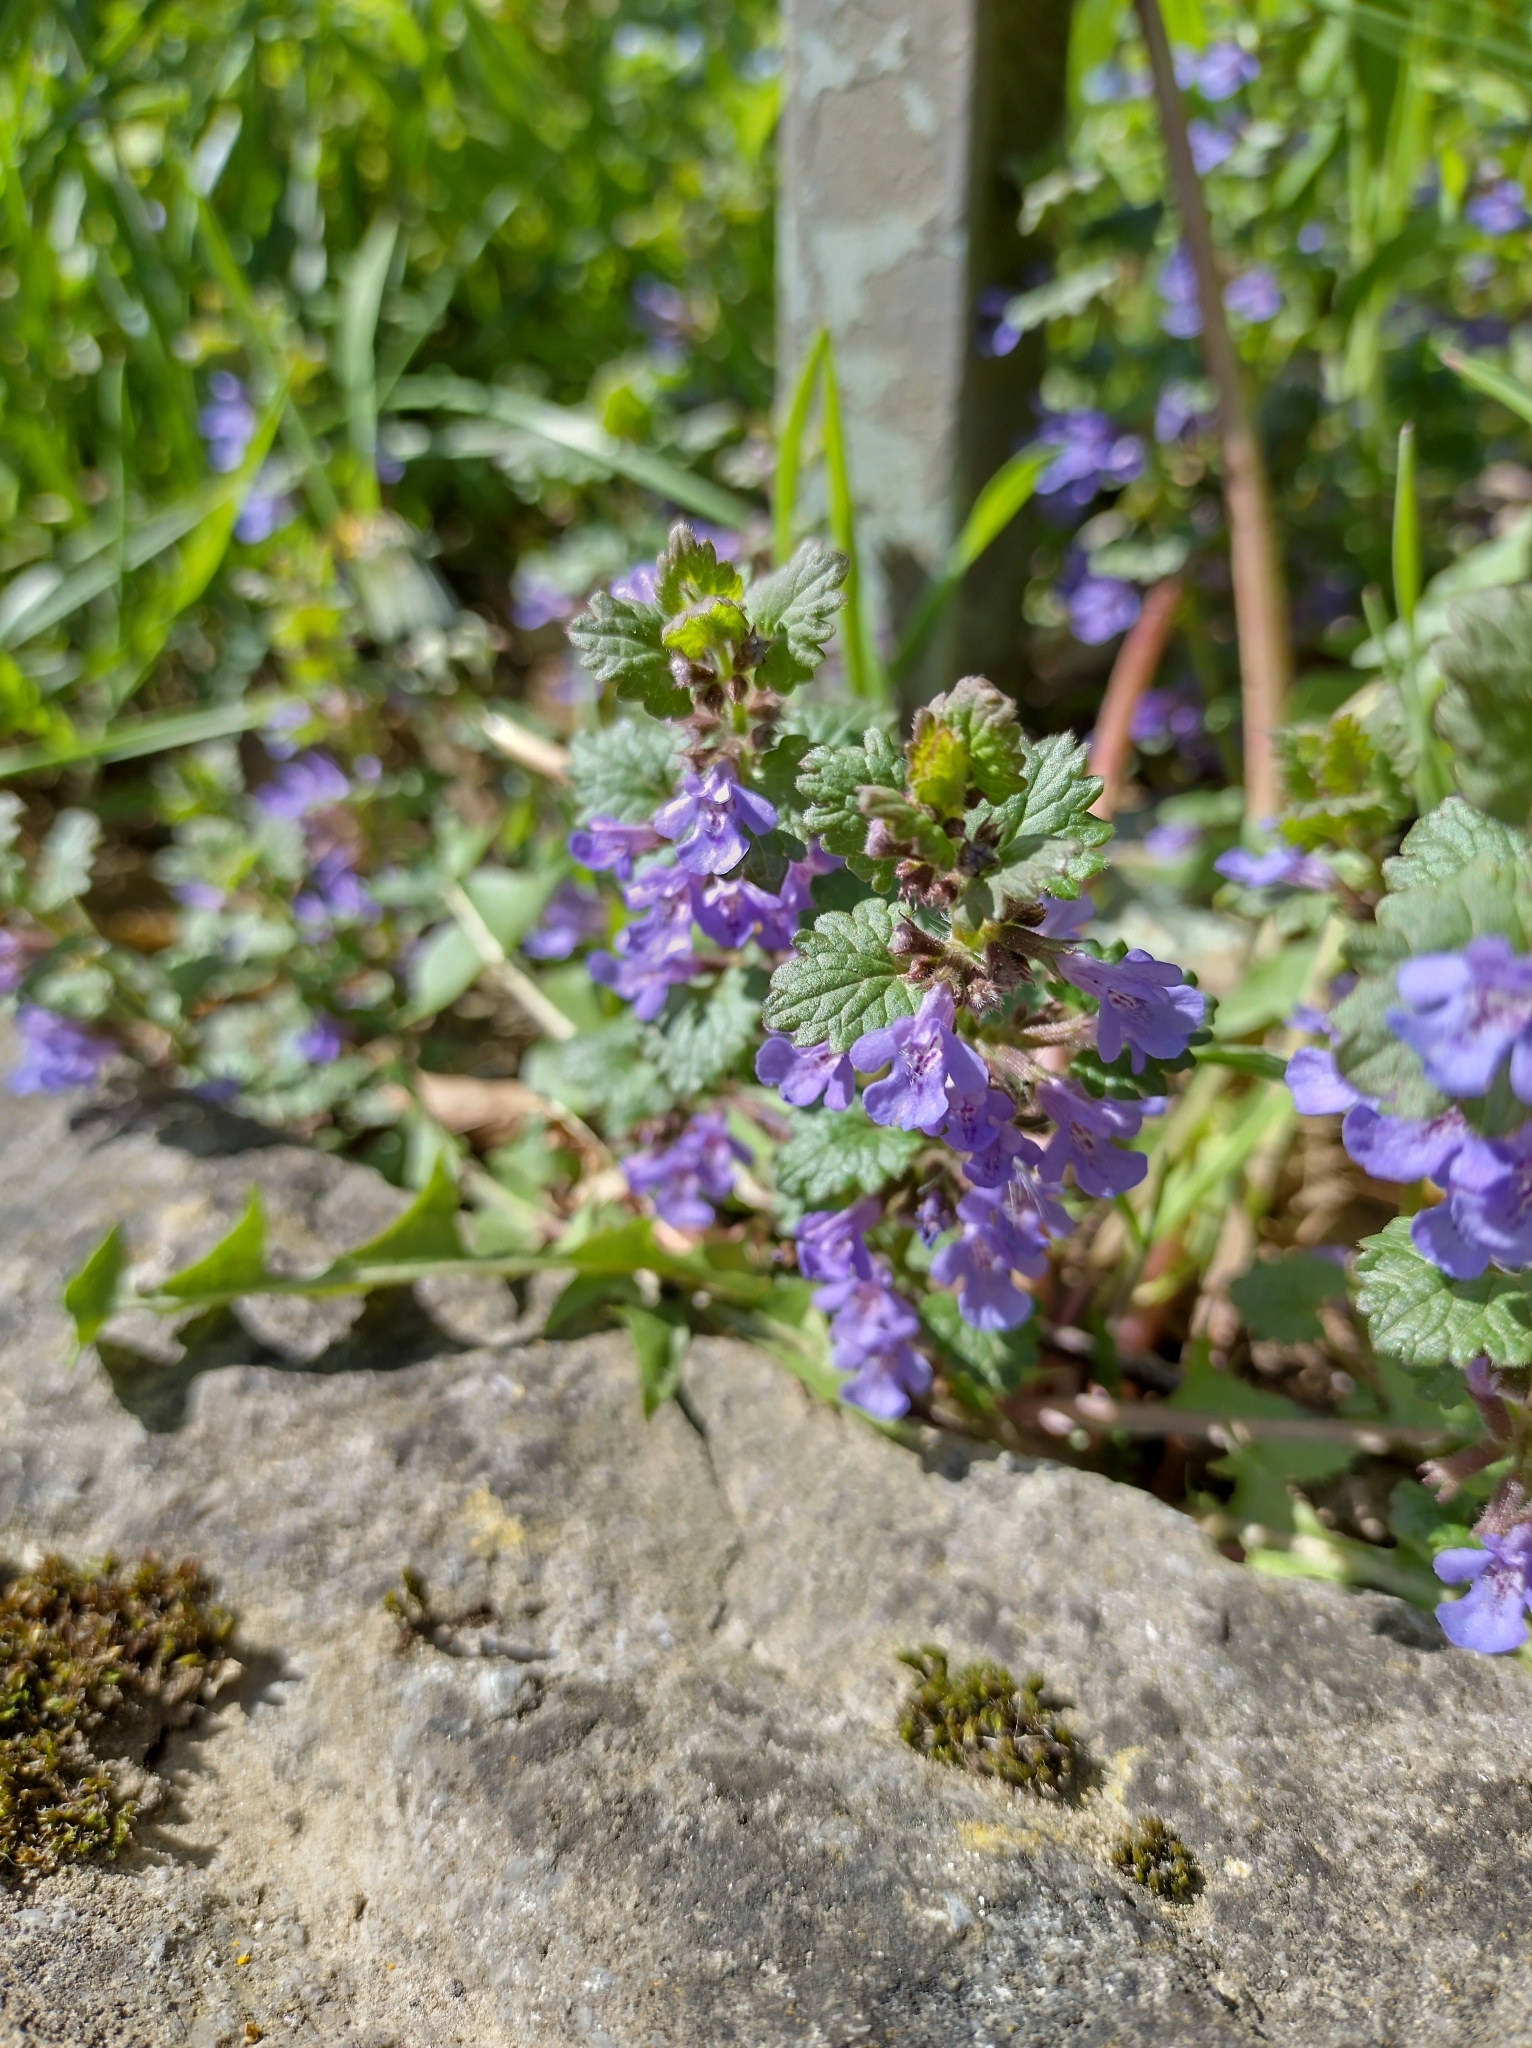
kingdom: Plantae
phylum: Tracheophyta
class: Magnoliopsida
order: Lamiales
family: Lamiaceae
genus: Glechoma
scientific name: Glechoma hederacea
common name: Ground ivy
